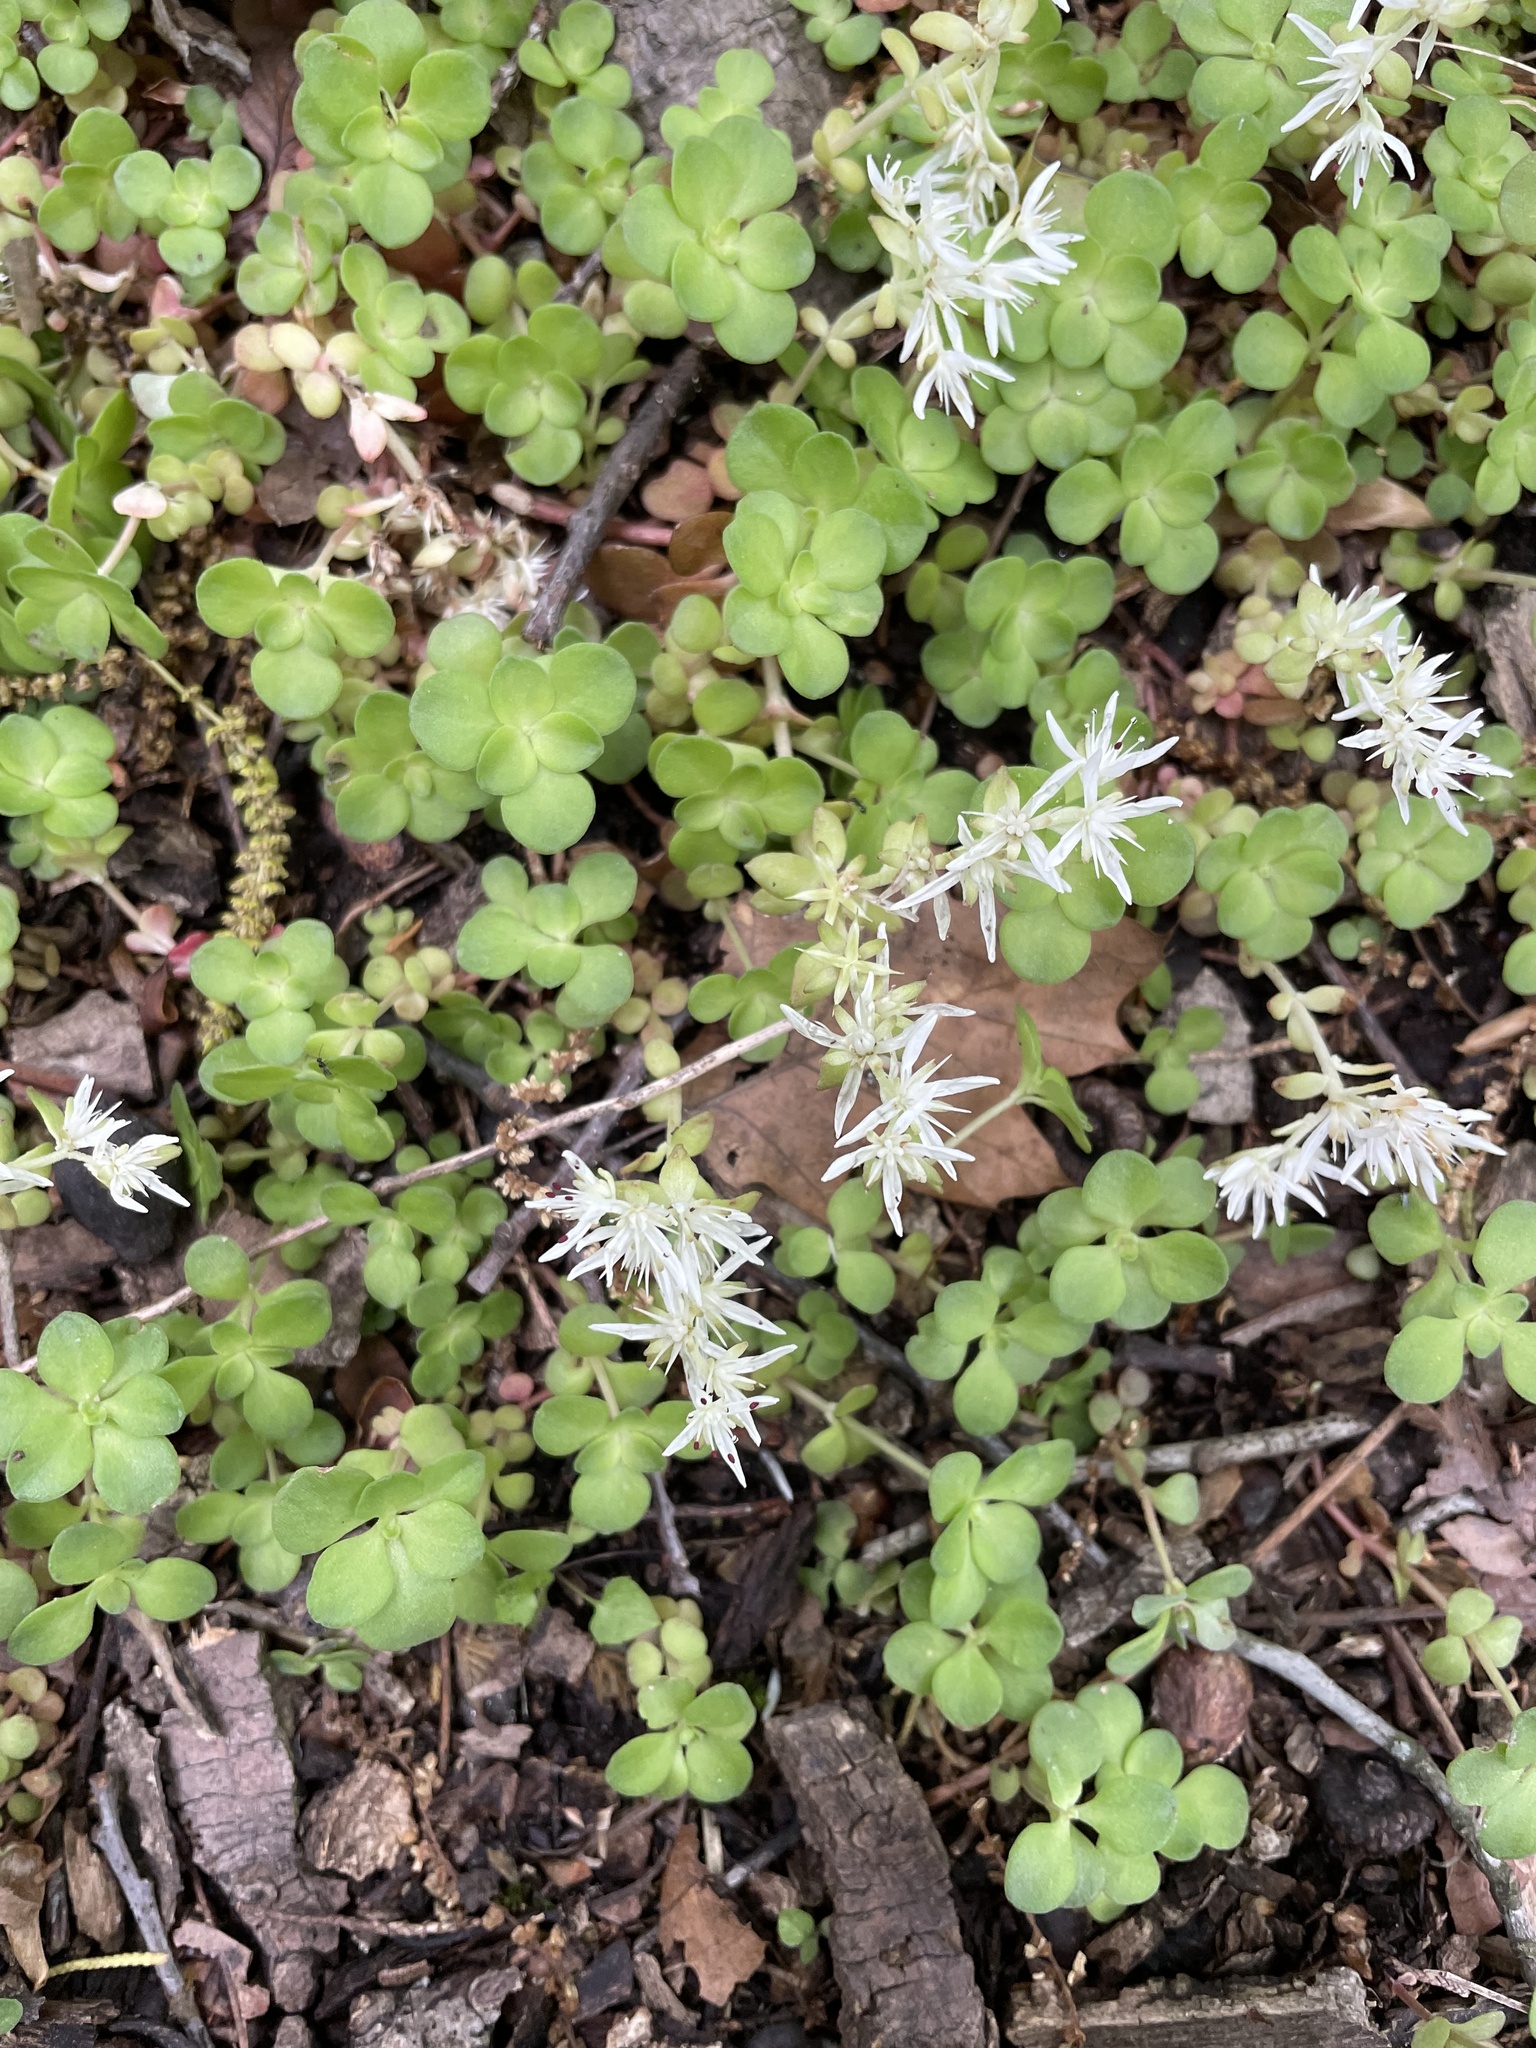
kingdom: Plantae
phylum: Tracheophyta
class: Magnoliopsida
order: Saxifragales
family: Crassulaceae
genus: Sedum
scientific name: Sedum ternatum
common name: Wild stonecrop
